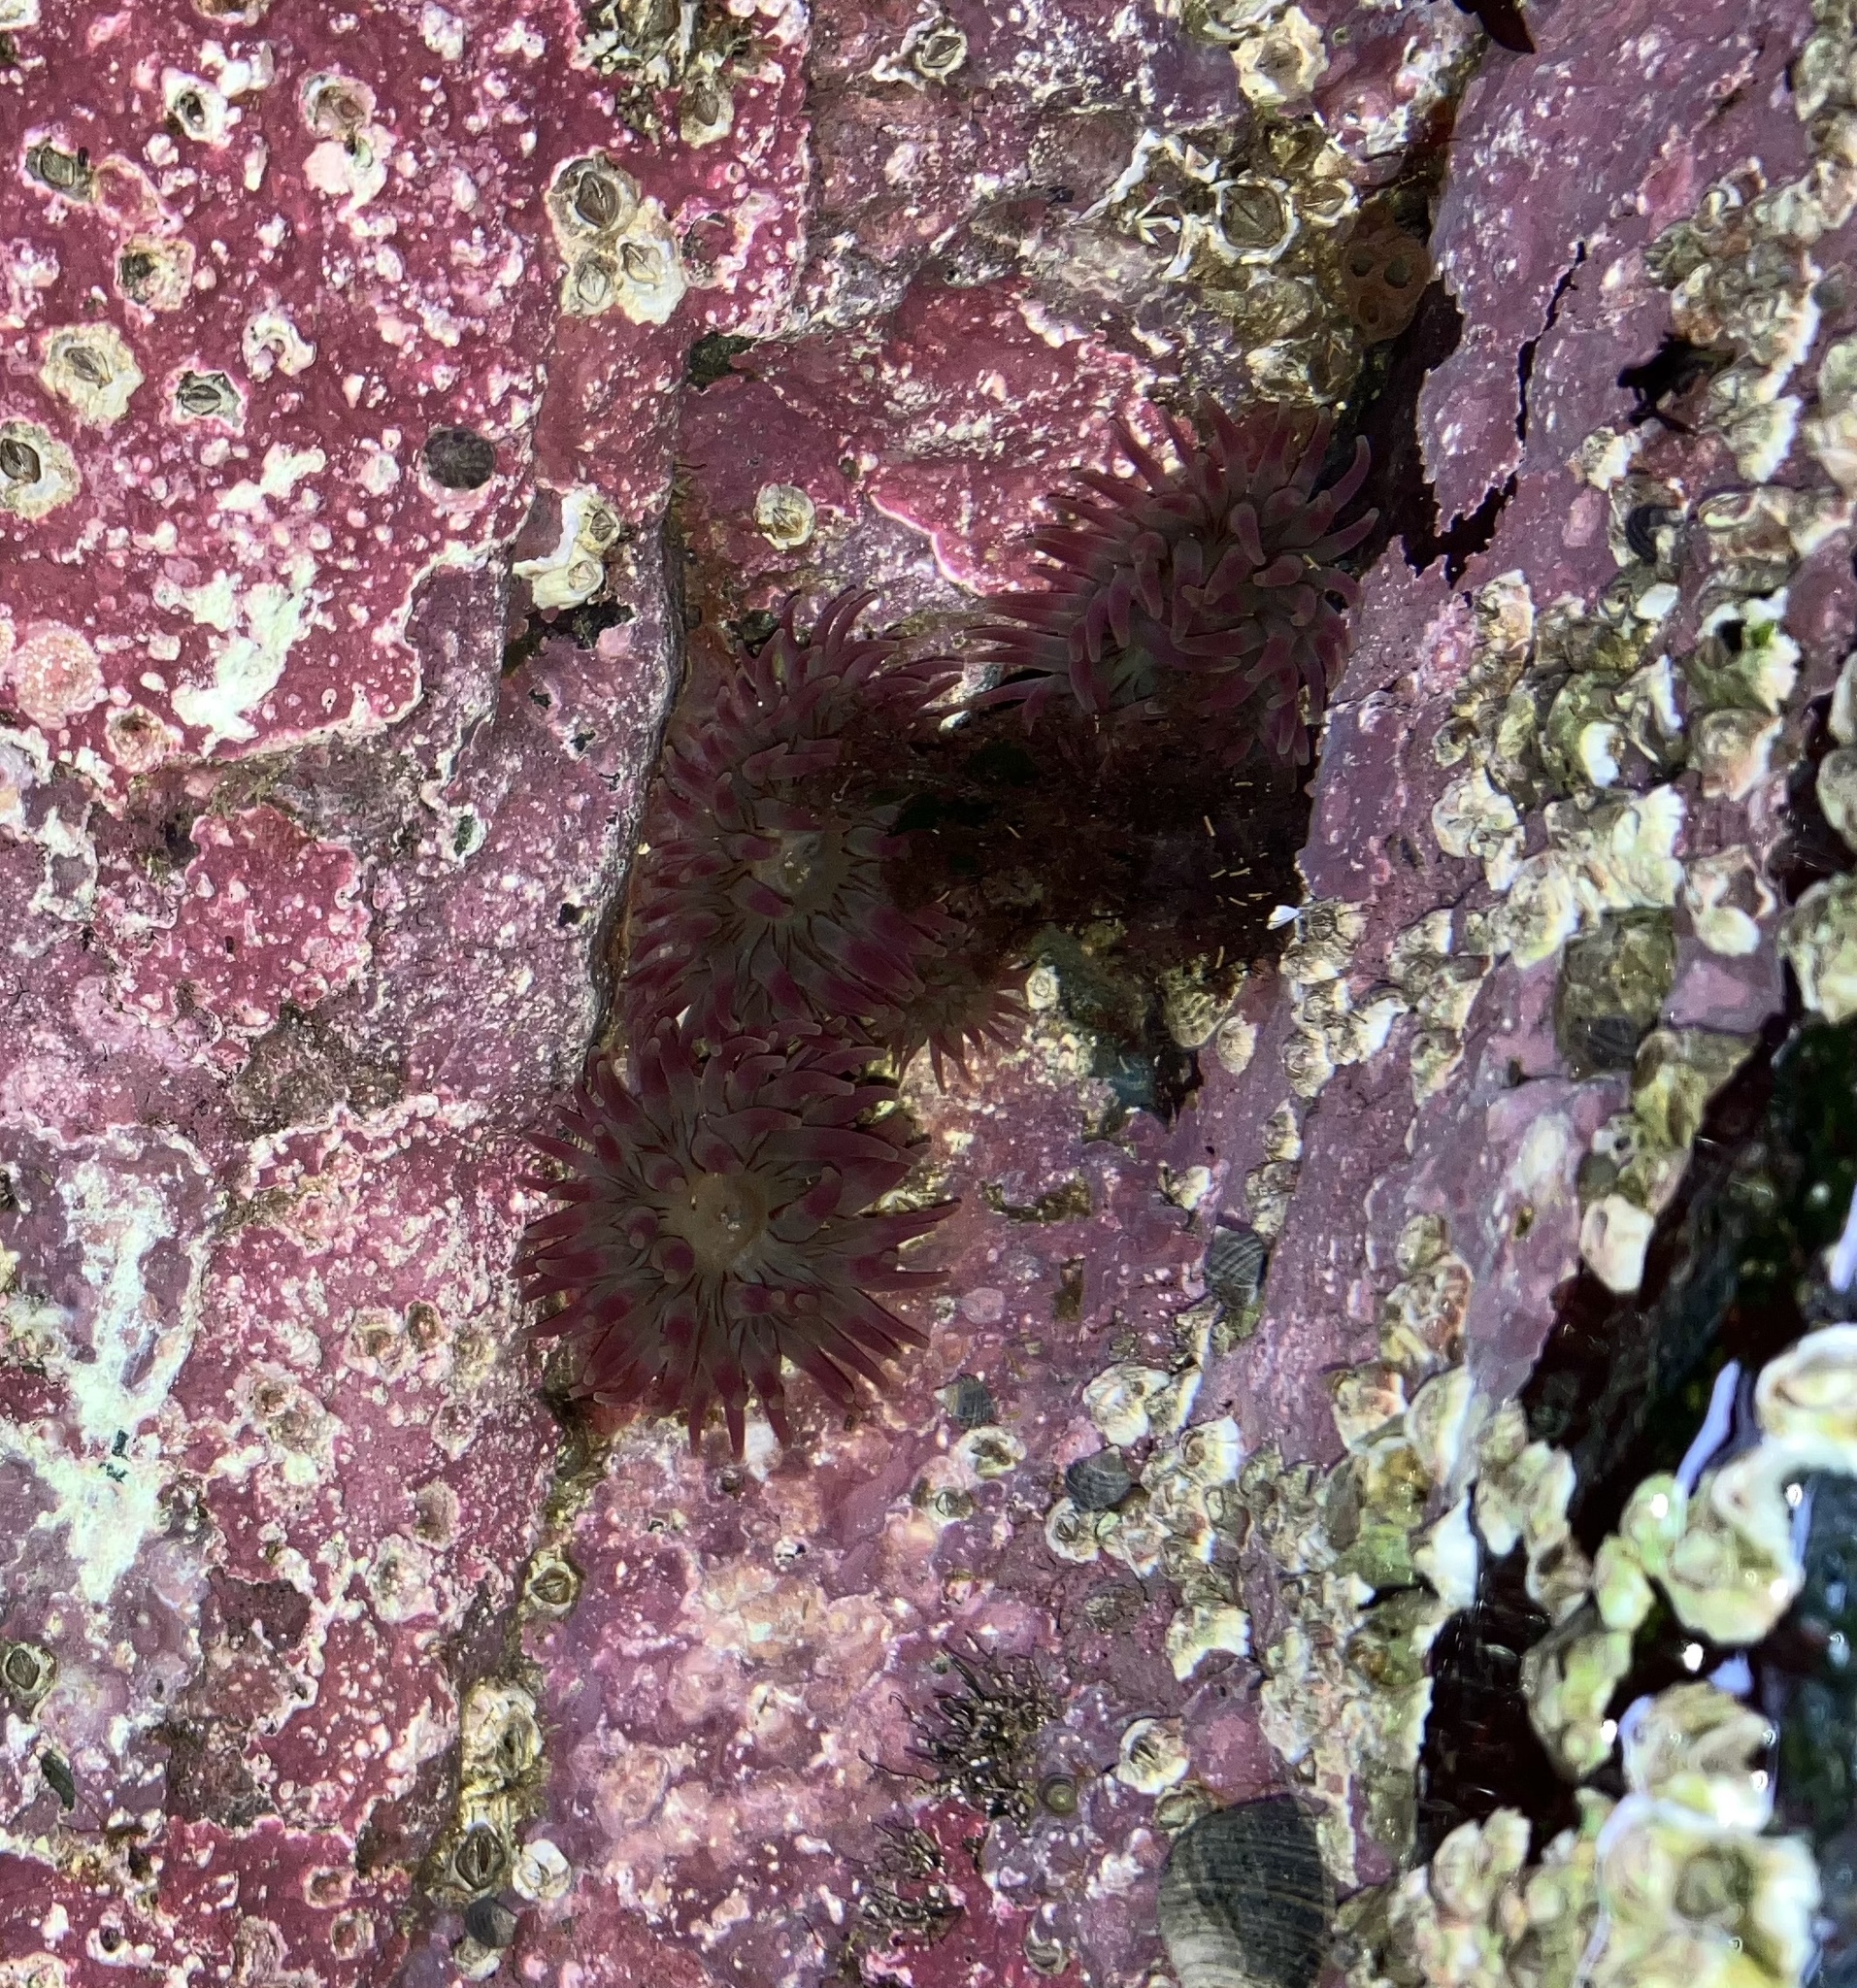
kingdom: Animalia
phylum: Cnidaria
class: Anthozoa
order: Actiniaria
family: Actiniidae
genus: Urticina
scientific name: Urticina crassicornis
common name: Mottled anemone
